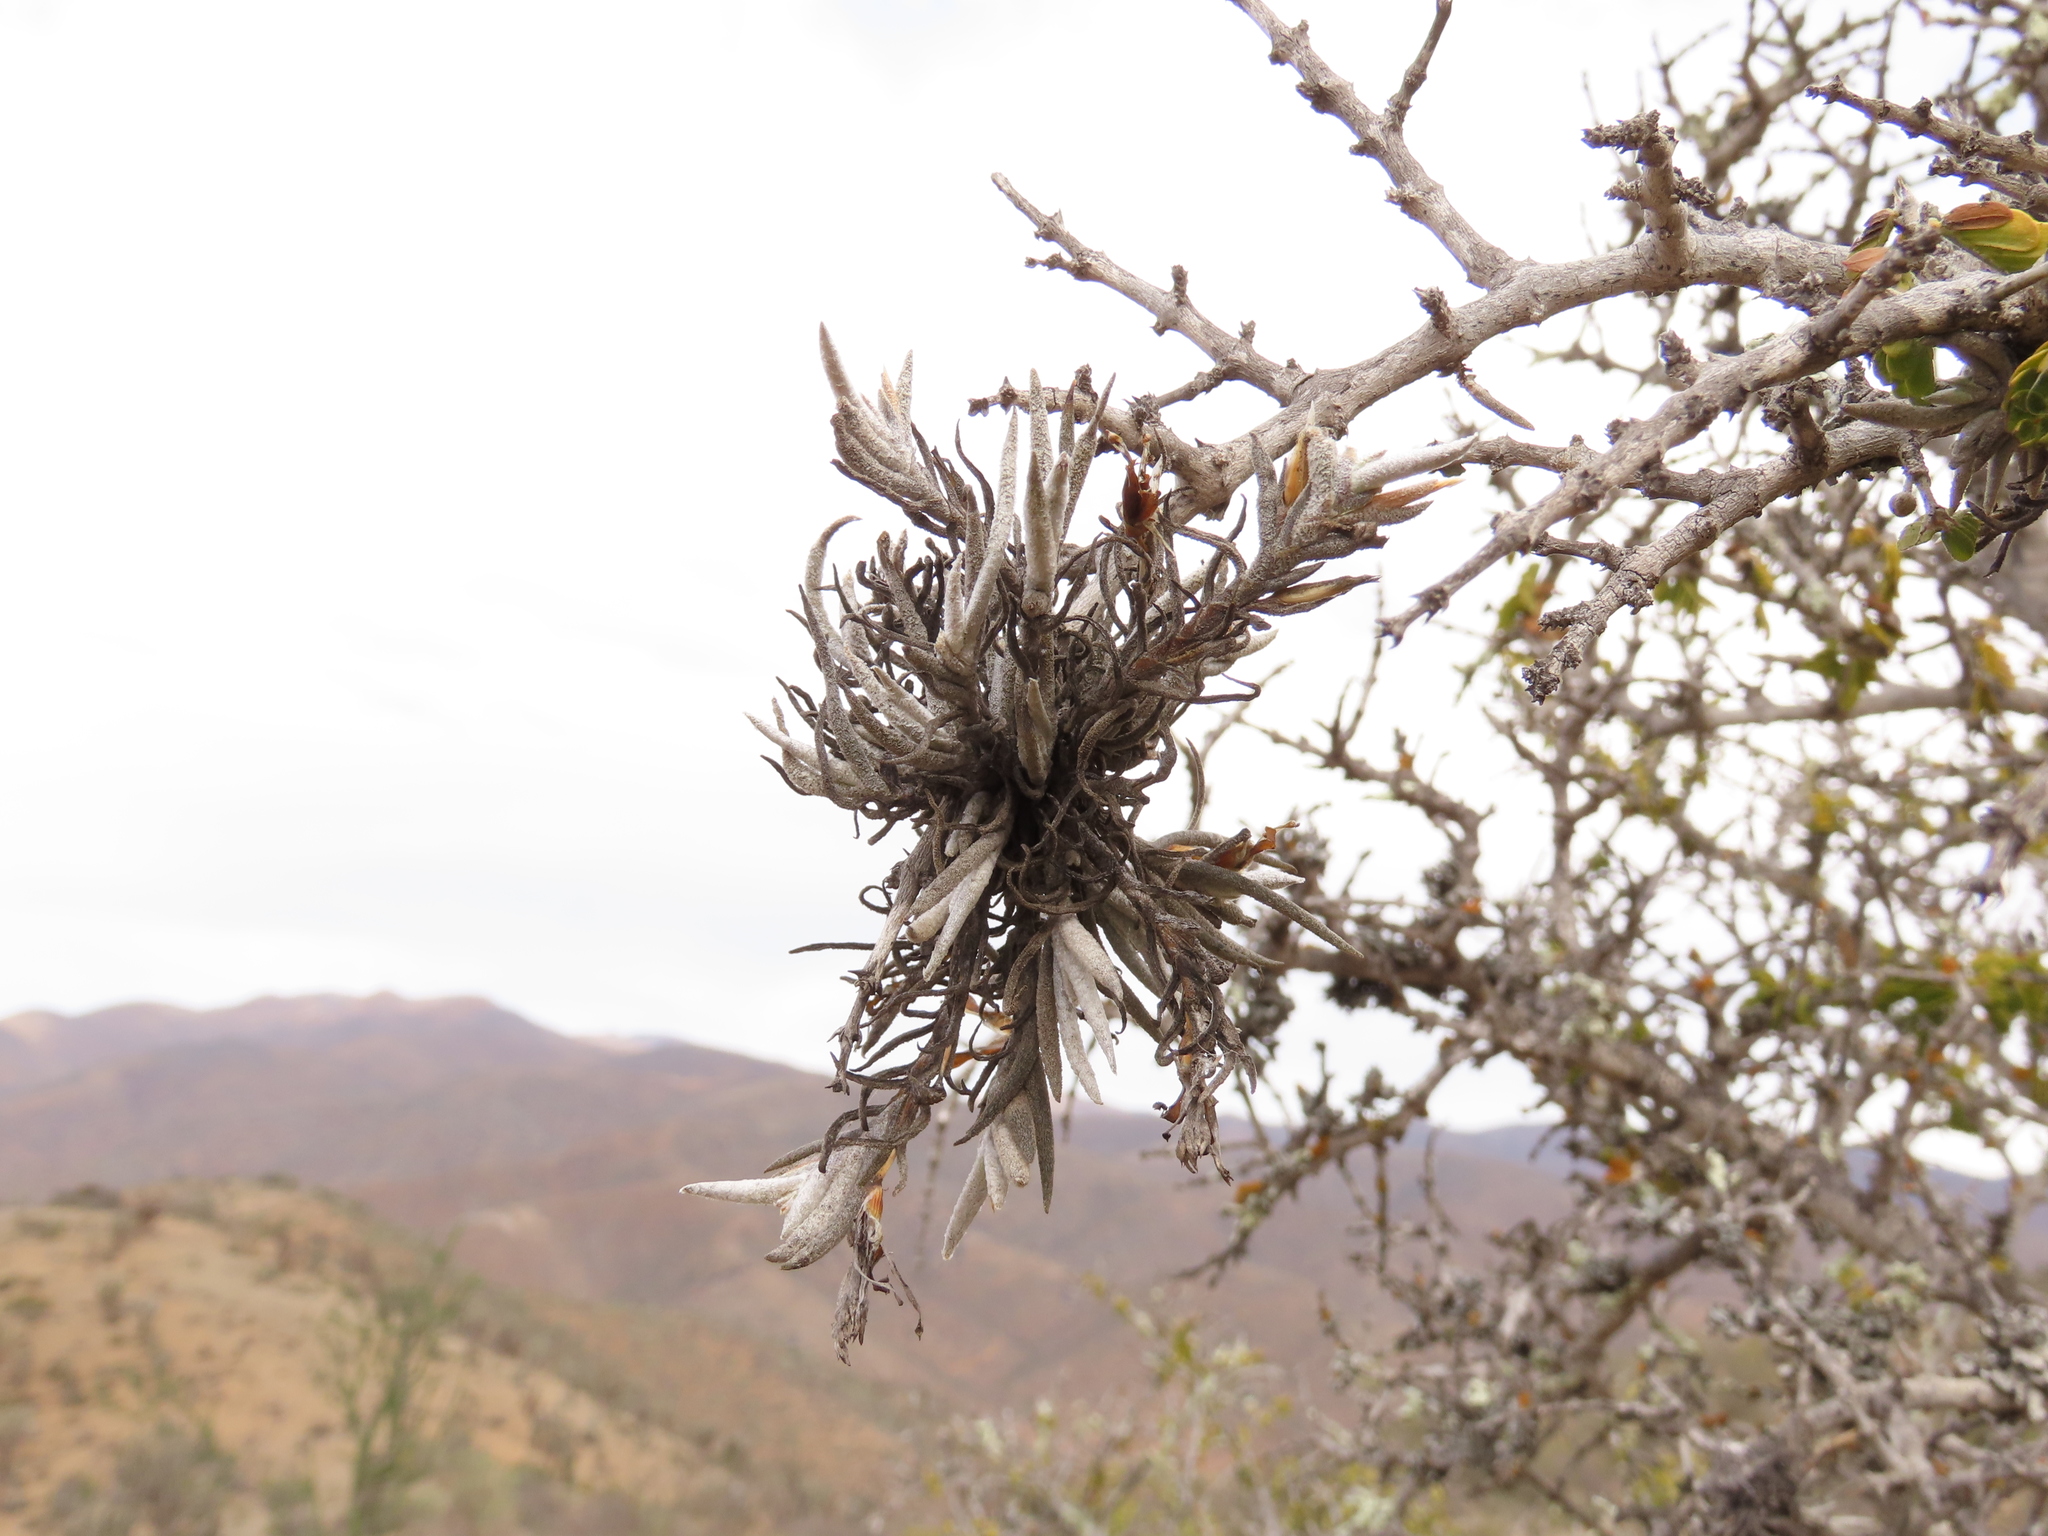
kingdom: Plantae
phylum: Tracheophyta
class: Liliopsida
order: Poales
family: Bromeliaceae
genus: Tillandsia
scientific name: Tillandsia virescens
